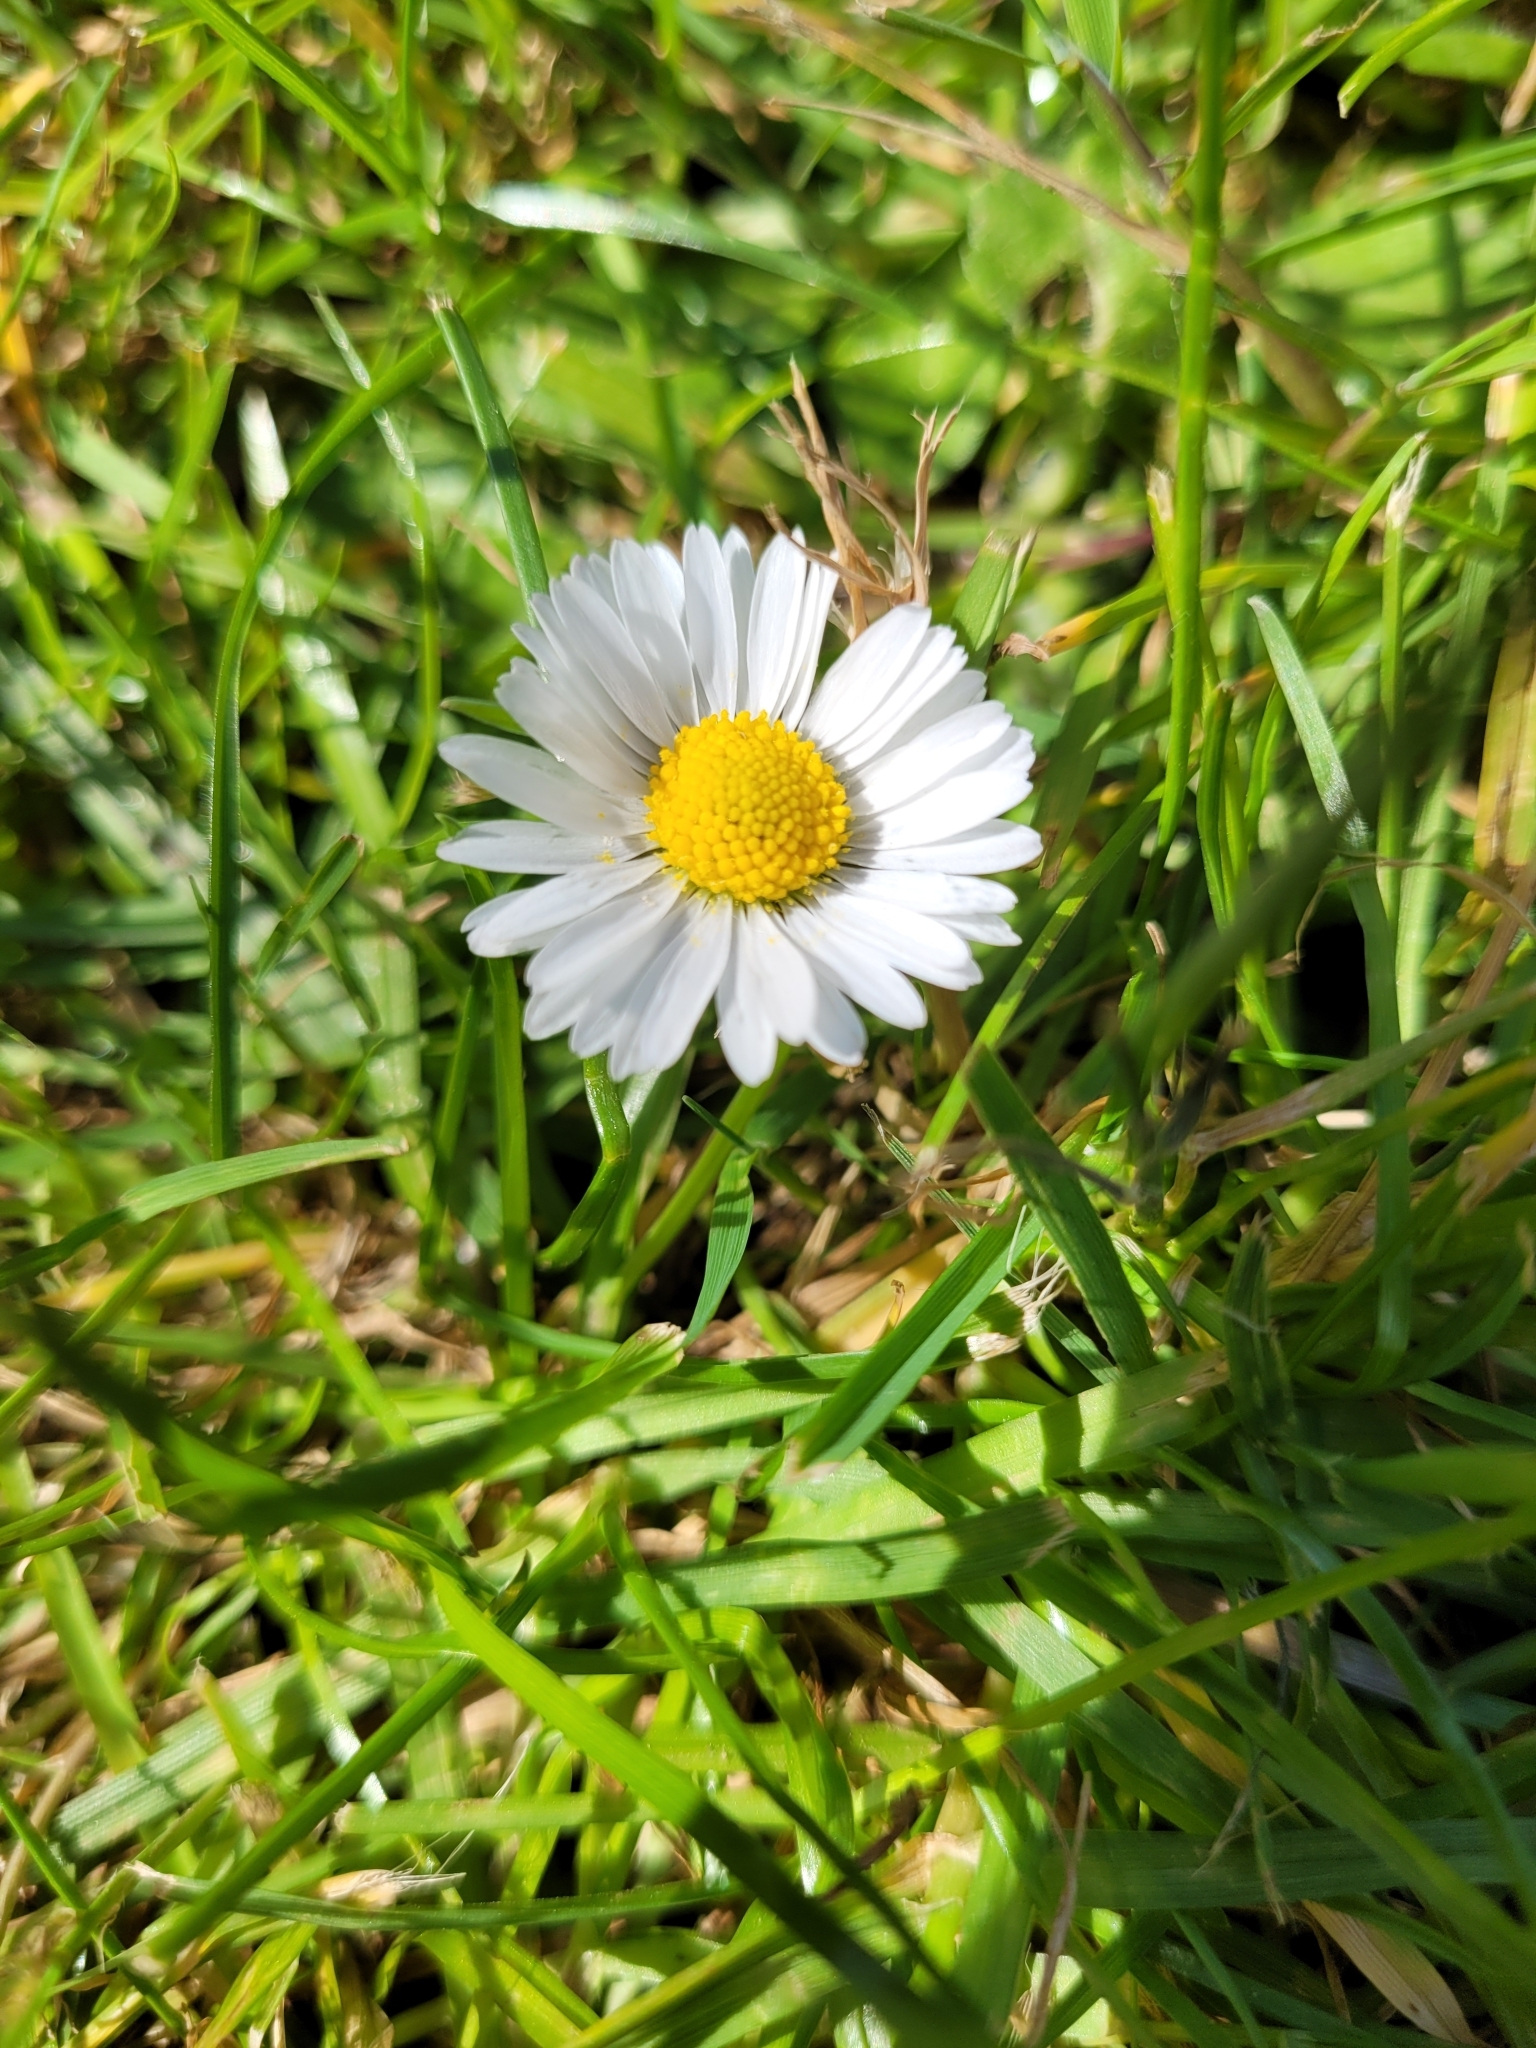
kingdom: Plantae
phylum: Tracheophyta
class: Magnoliopsida
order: Asterales
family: Asteraceae
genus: Bellis
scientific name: Bellis perennis
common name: Lawndaisy
